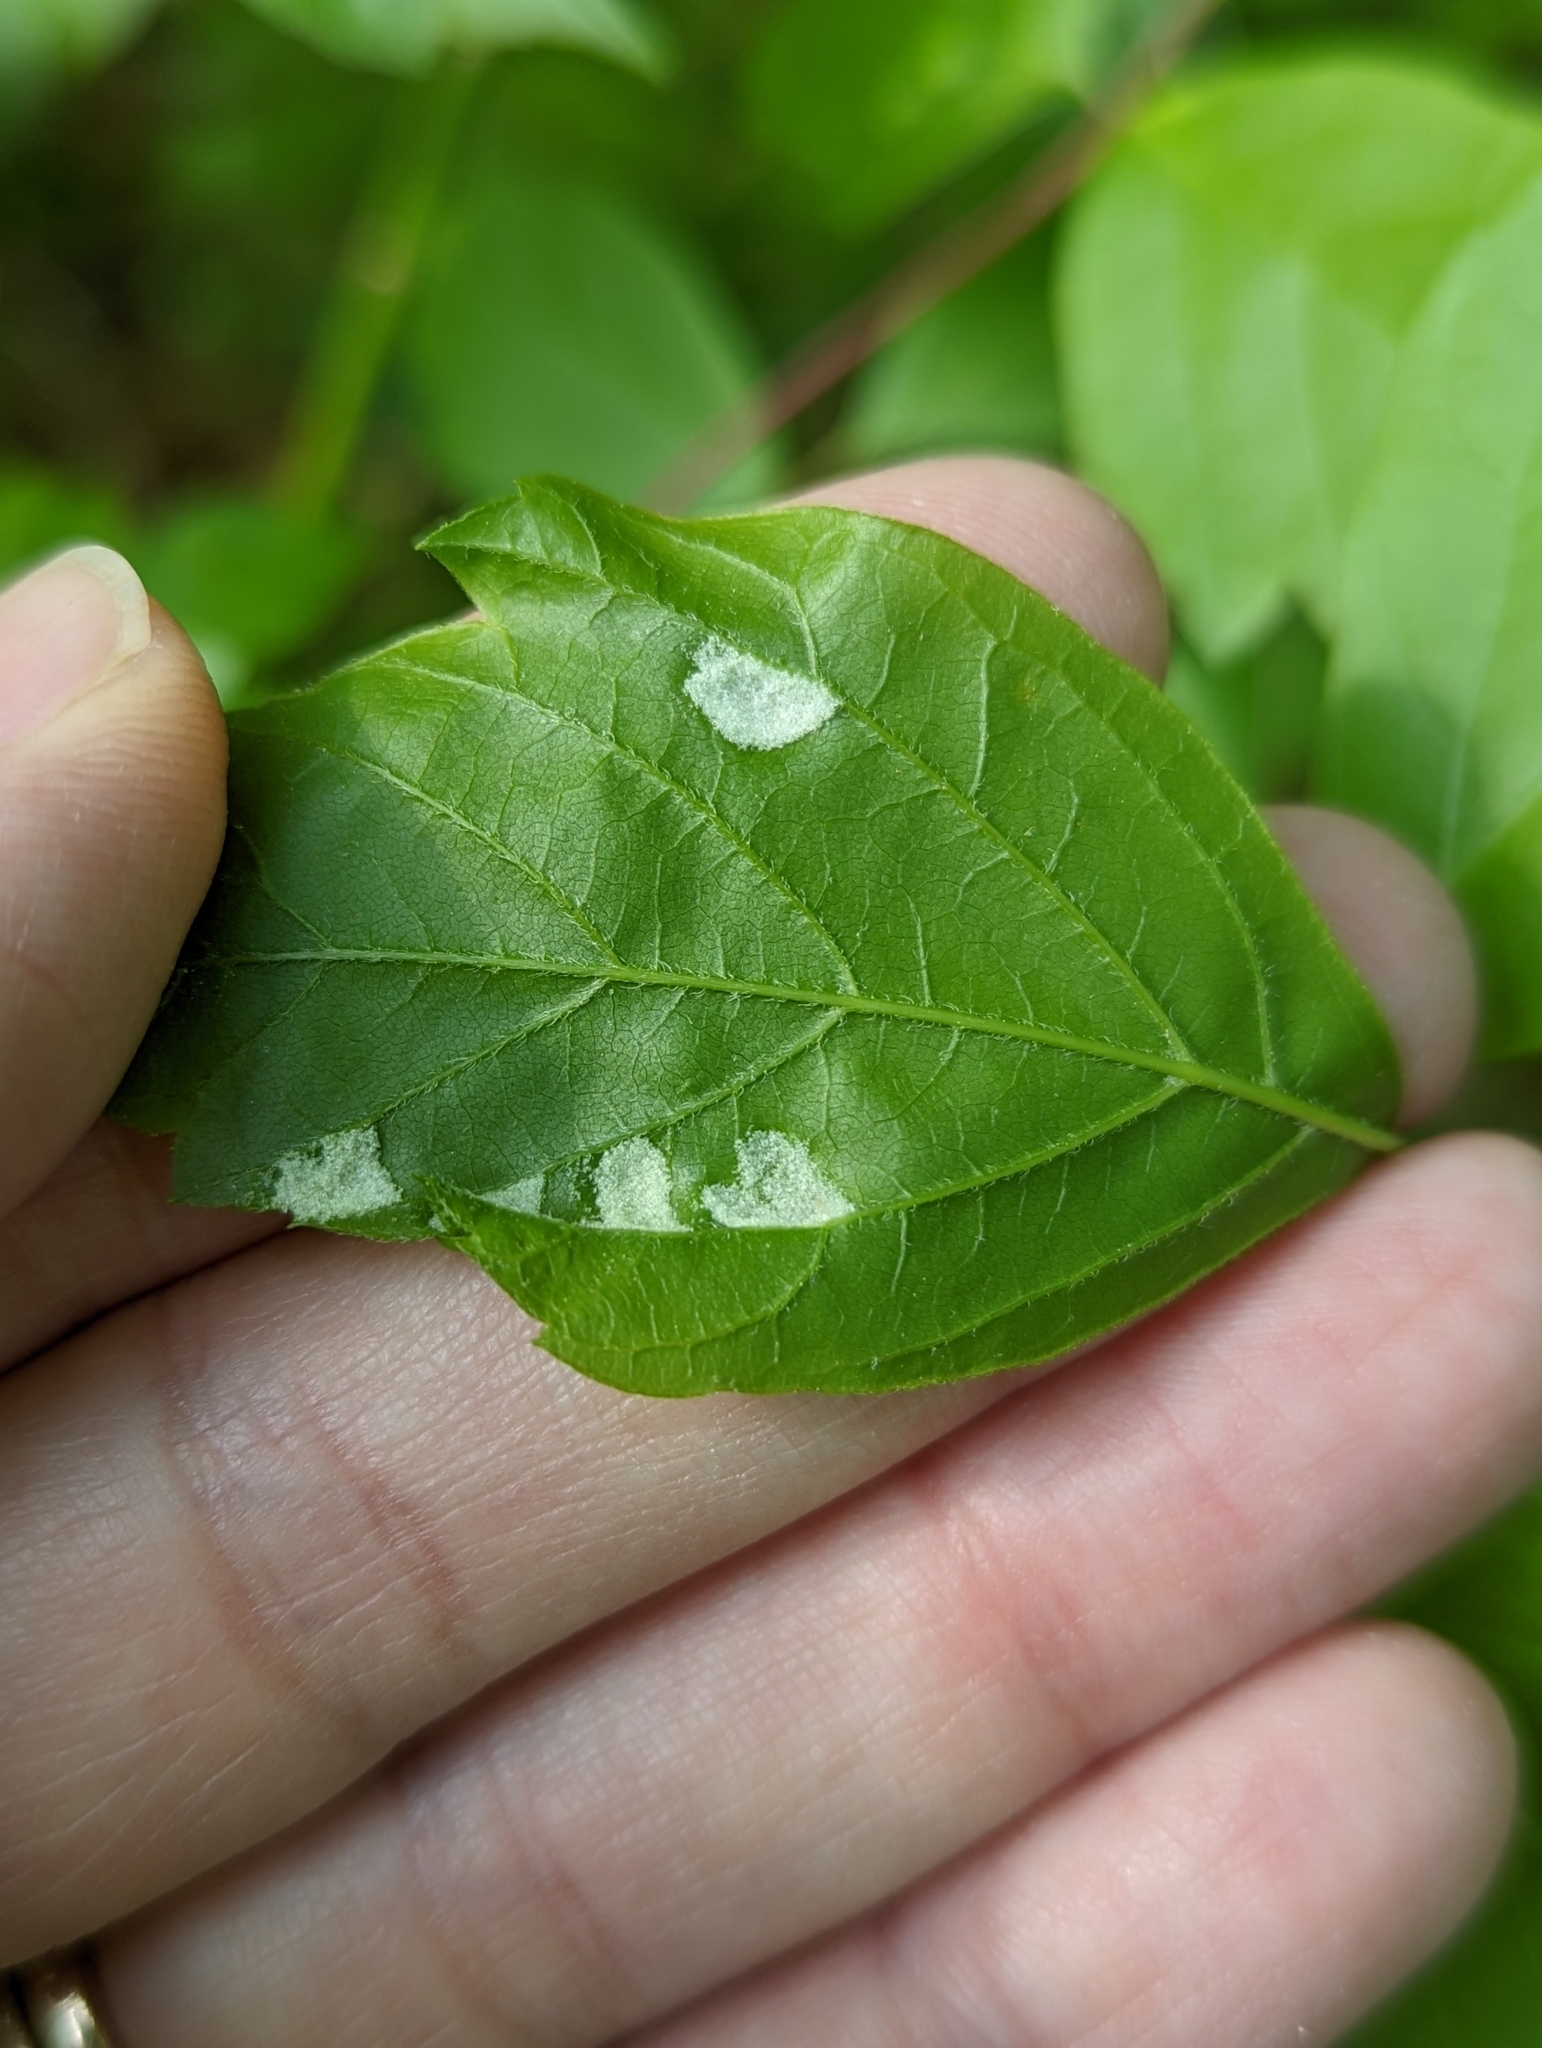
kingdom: Animalia
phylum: Arthropoda
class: Arachnida
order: Trombidiformes
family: Eriophyidae
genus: Aceria
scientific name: Aceria
